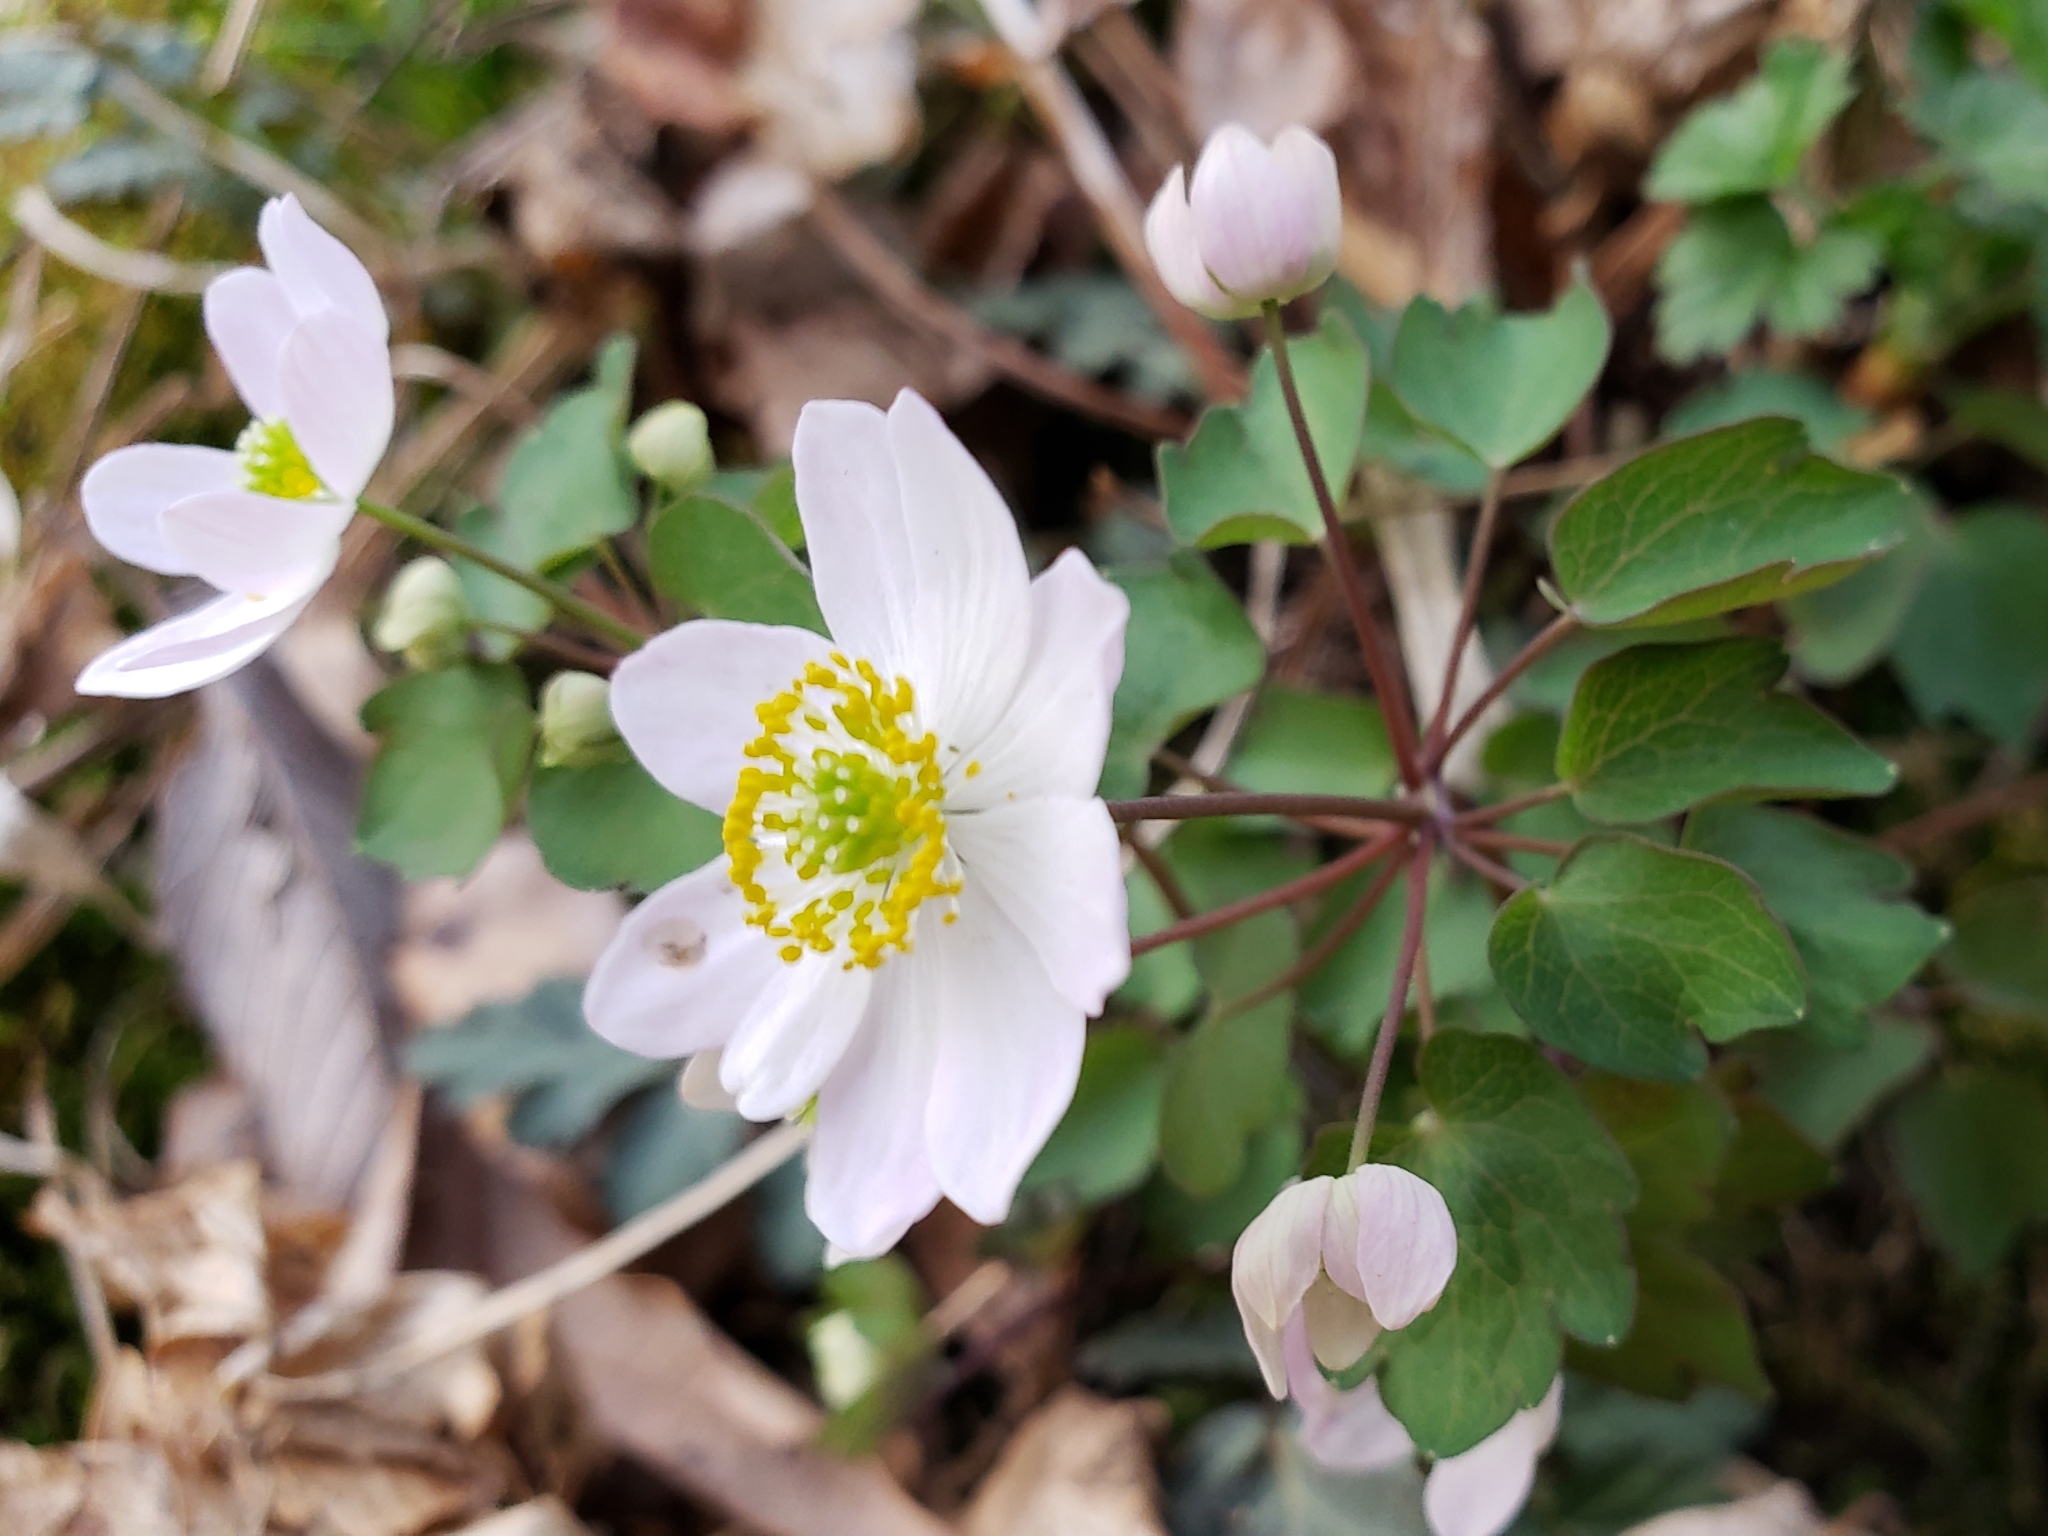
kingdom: Plantae
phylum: Tracheophyta
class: Magnoliopsida
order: Ranunculales
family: Ranunculaceae
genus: Thalictrum
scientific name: Thalictrum thalictroides
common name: Rue-anemone
